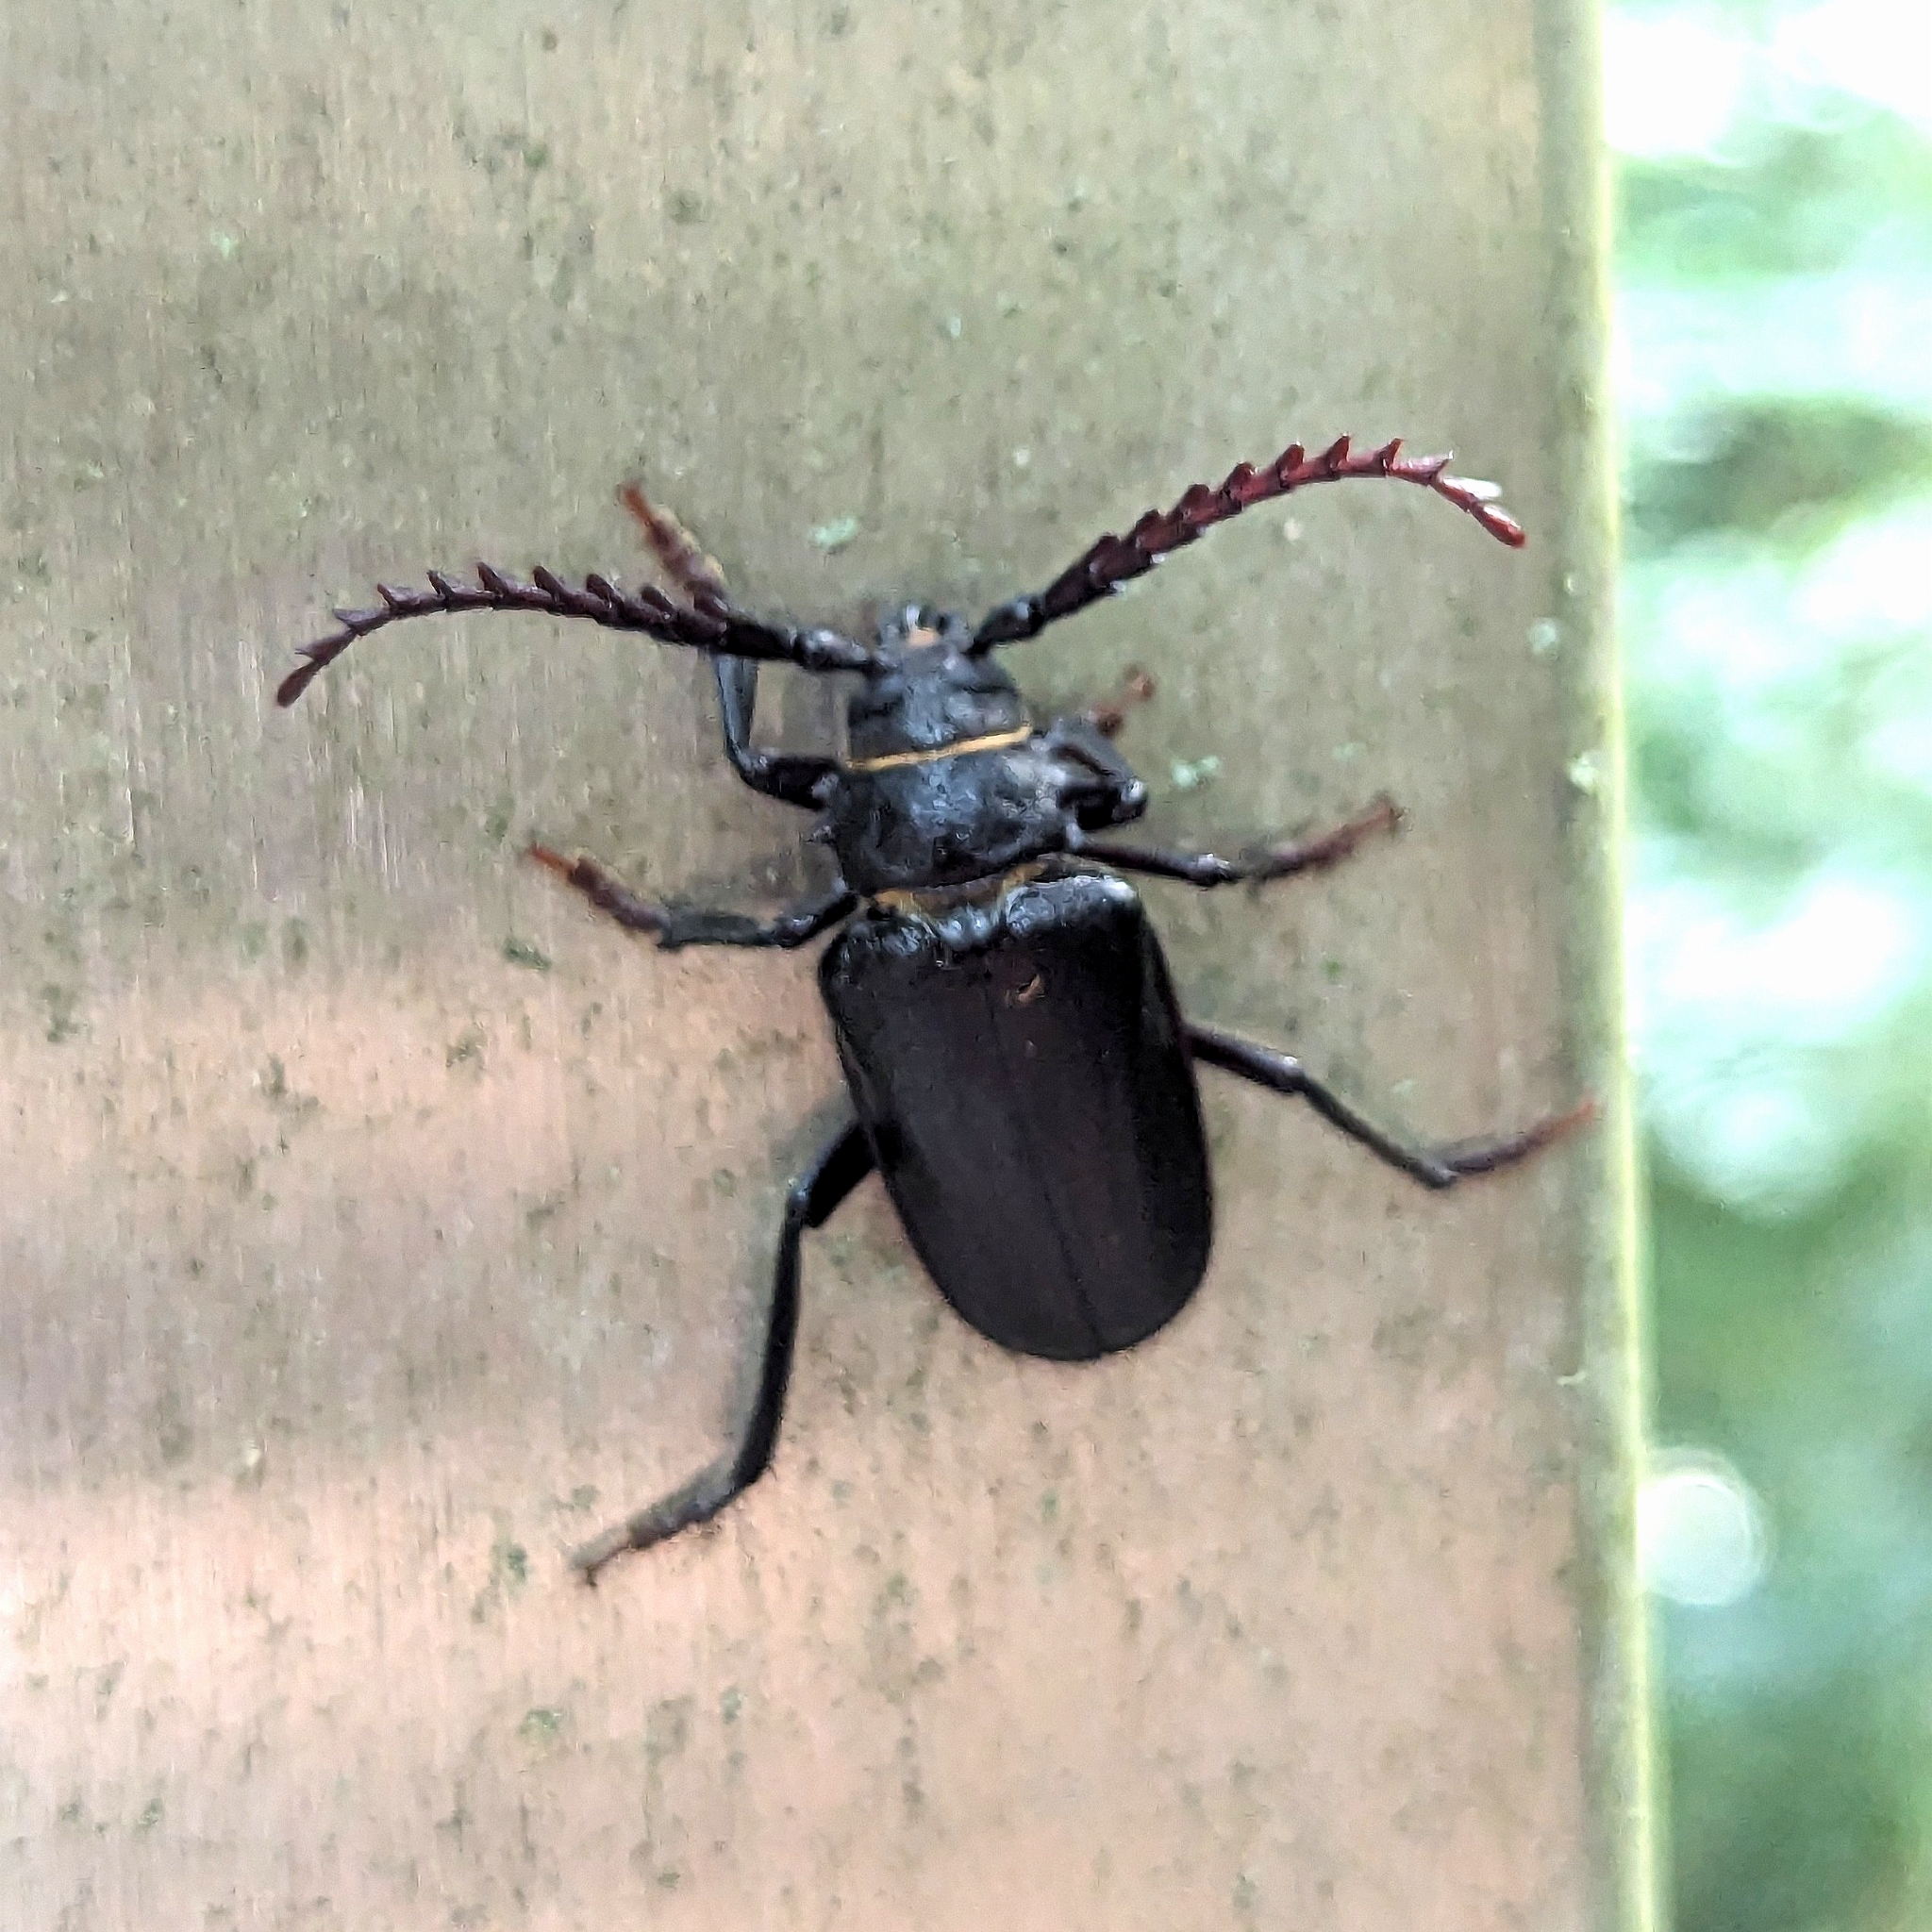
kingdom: Animalia
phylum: Arthropoda
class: Insecta
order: Coleoptera
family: Cerambycidae
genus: Prionus
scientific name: Prionus coriarius
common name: Tanner beetle
